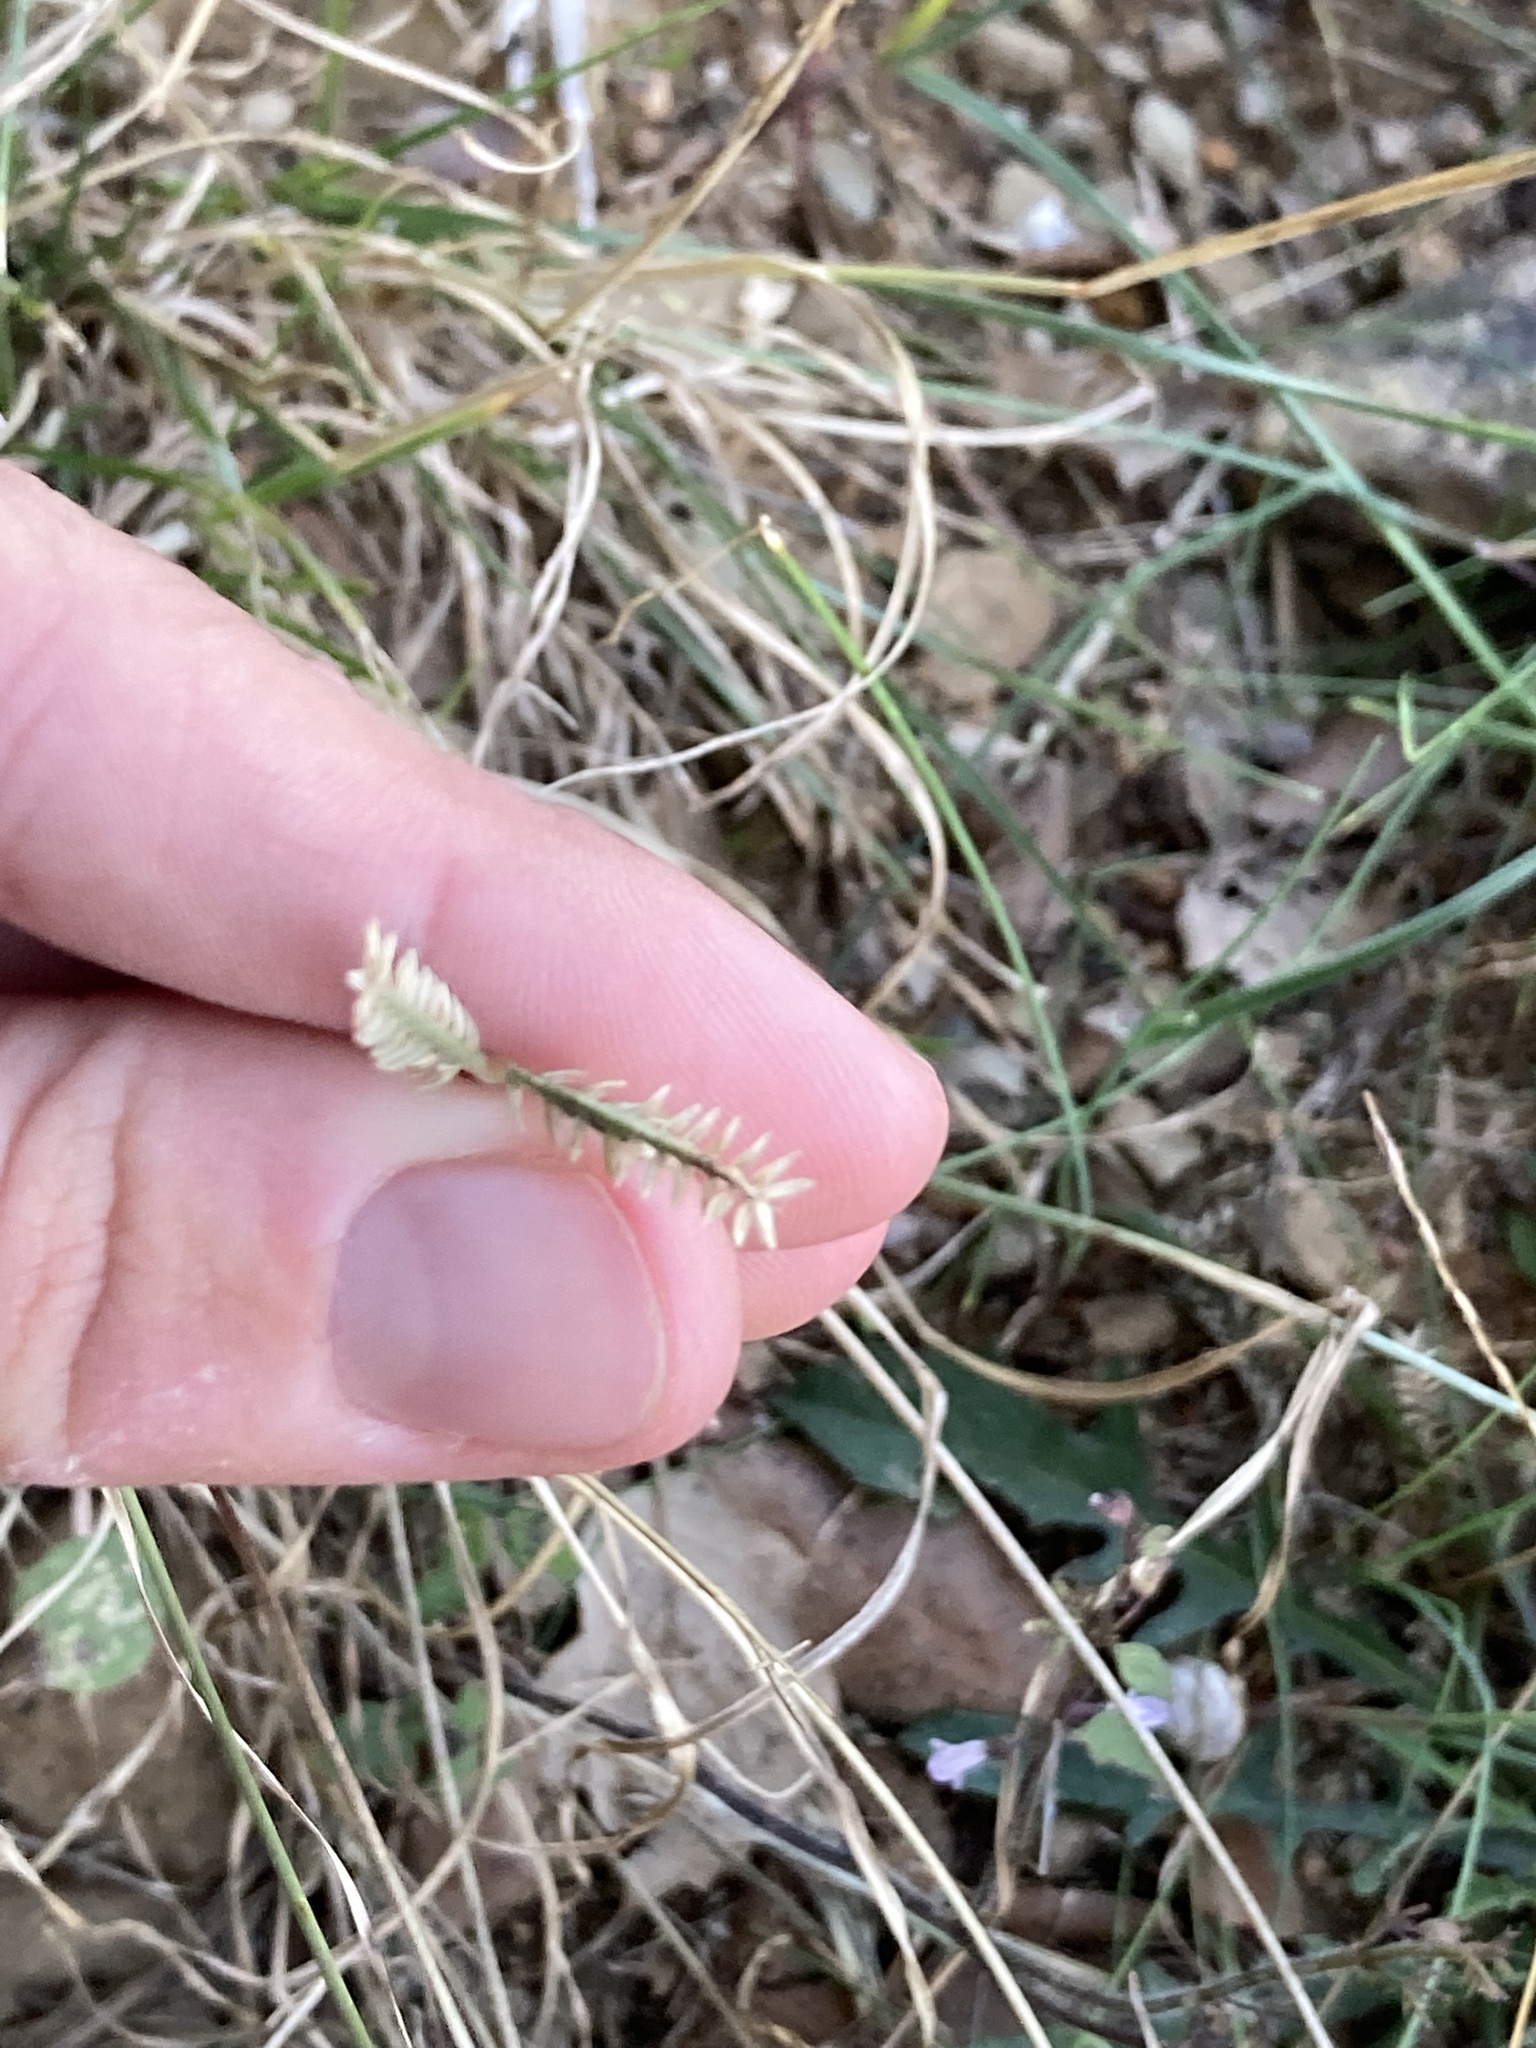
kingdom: Plantae
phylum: Tracheophyta
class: Liliopsida
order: Poales
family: Poaceae
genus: Eleusine
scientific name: Eleusine tristachya
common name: American yard-grass
